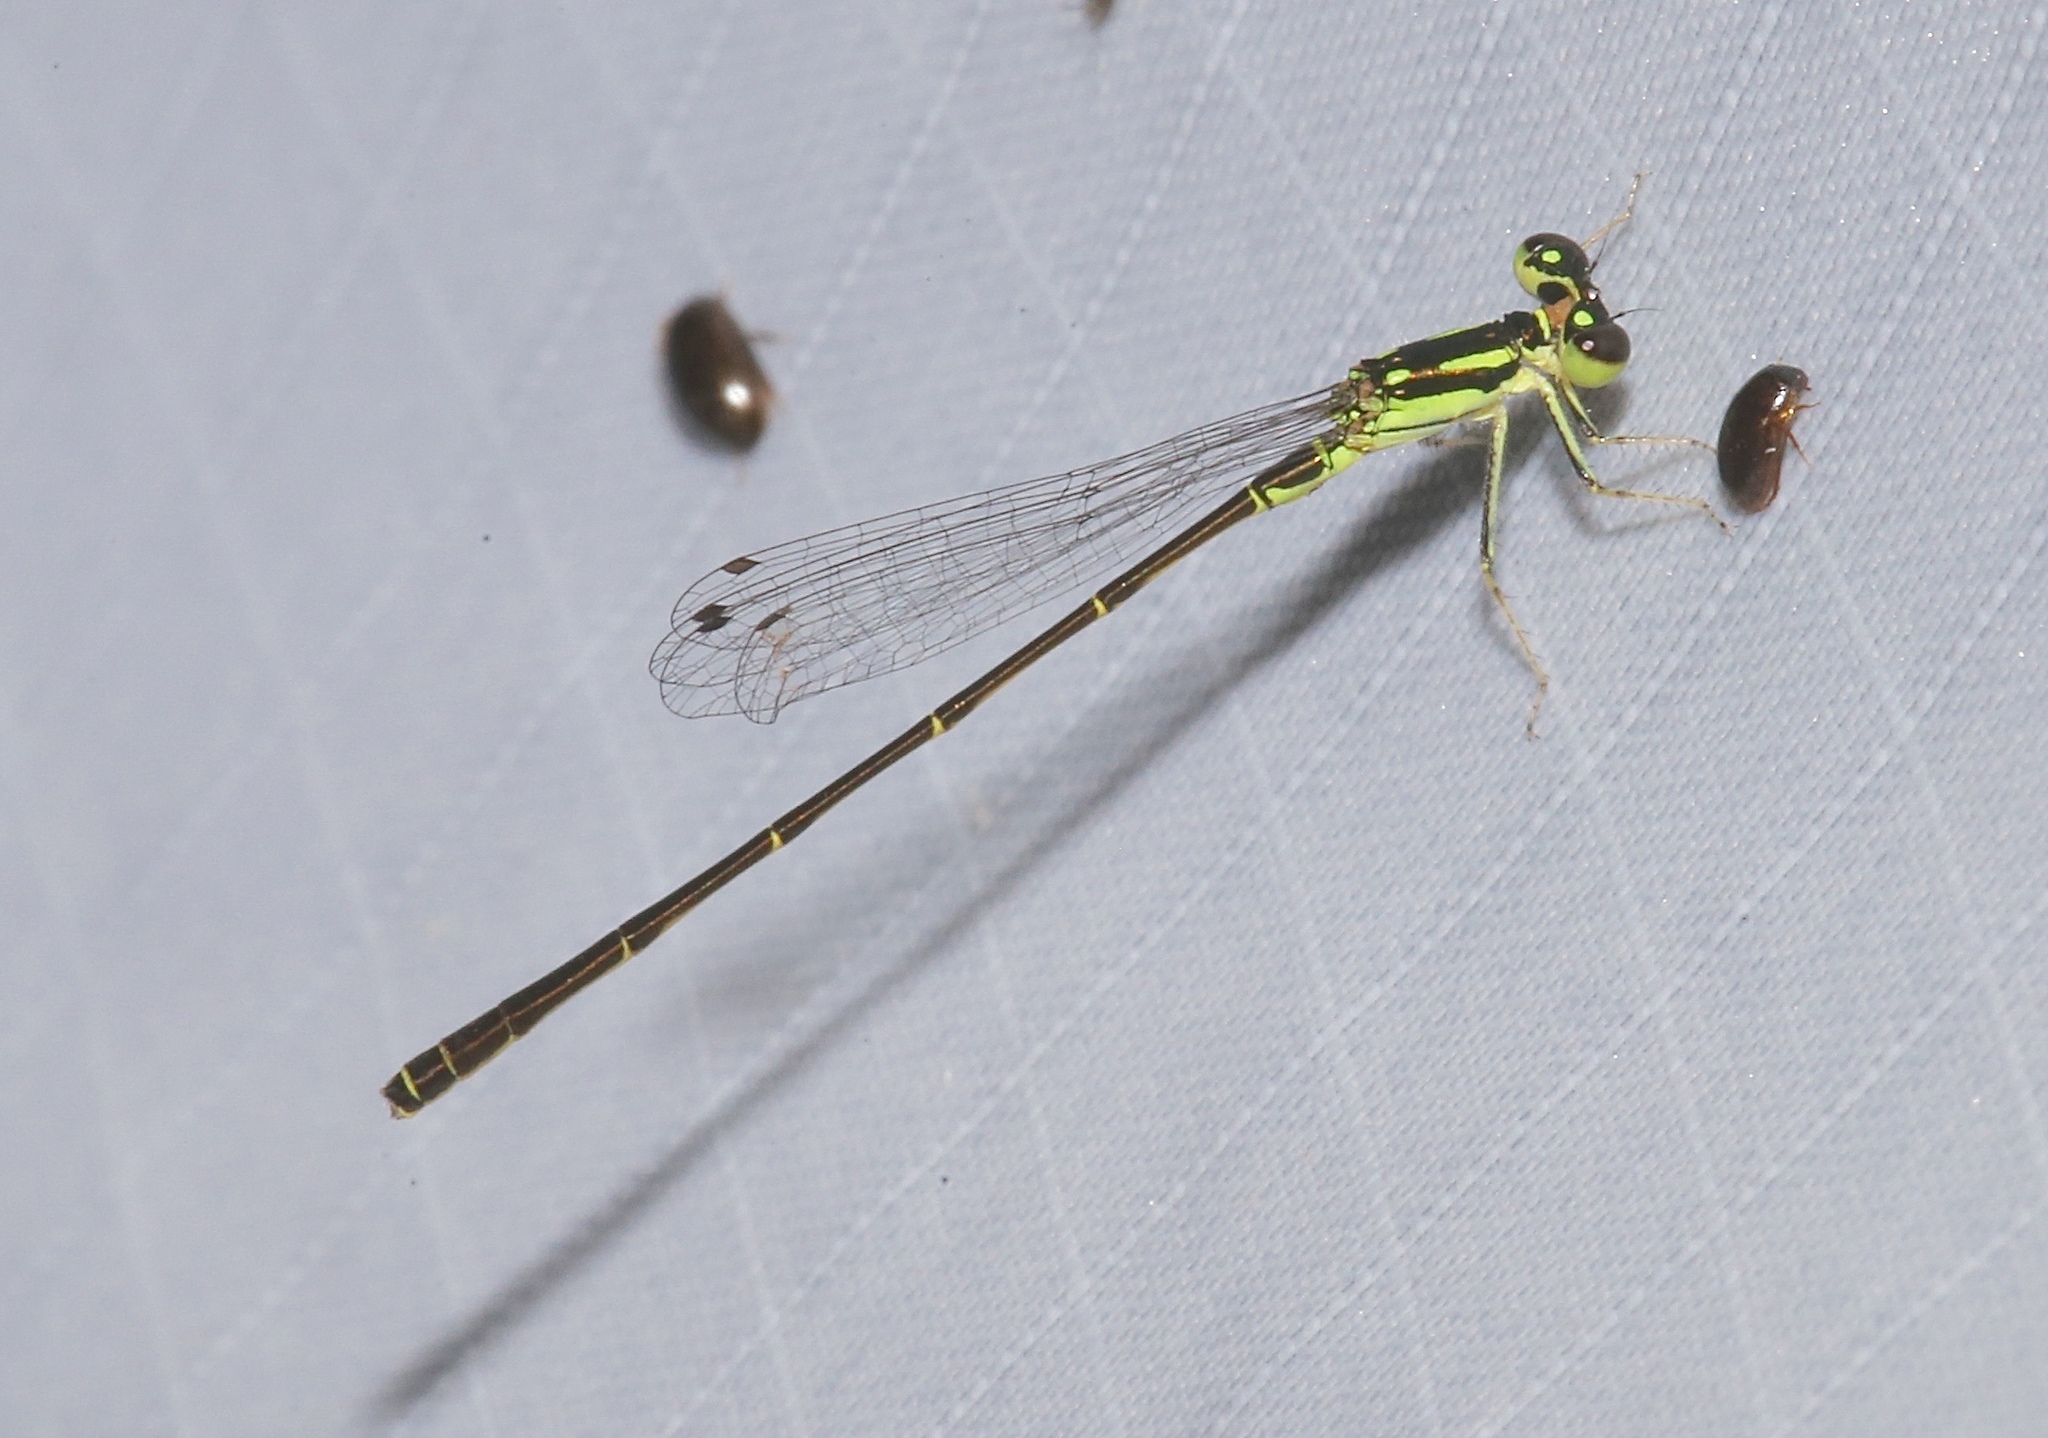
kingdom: Animalia
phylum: Arthropoda
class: Insecta
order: Odonata
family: Coenagrionidae
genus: Ischnura
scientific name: Ischnura posita
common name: Fragile forktail
